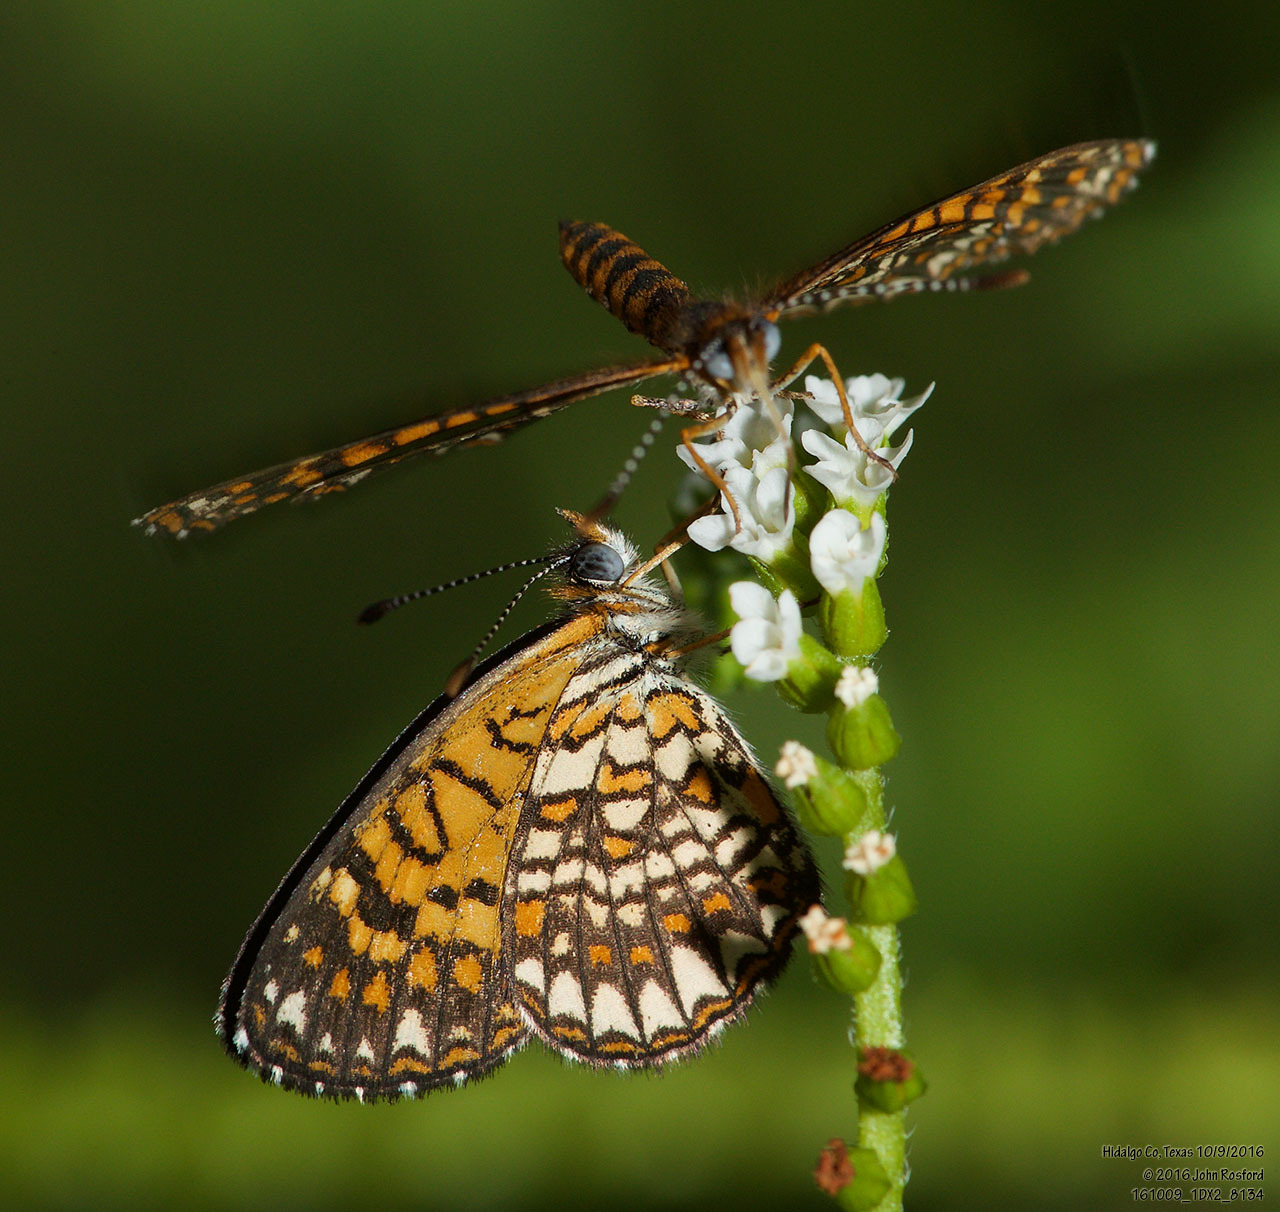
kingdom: Animalia
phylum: Arthropoda
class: Insecta
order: Lepidoptera
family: Nymphalidae
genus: Texola
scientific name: Texola elada
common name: Elada checkerspot
